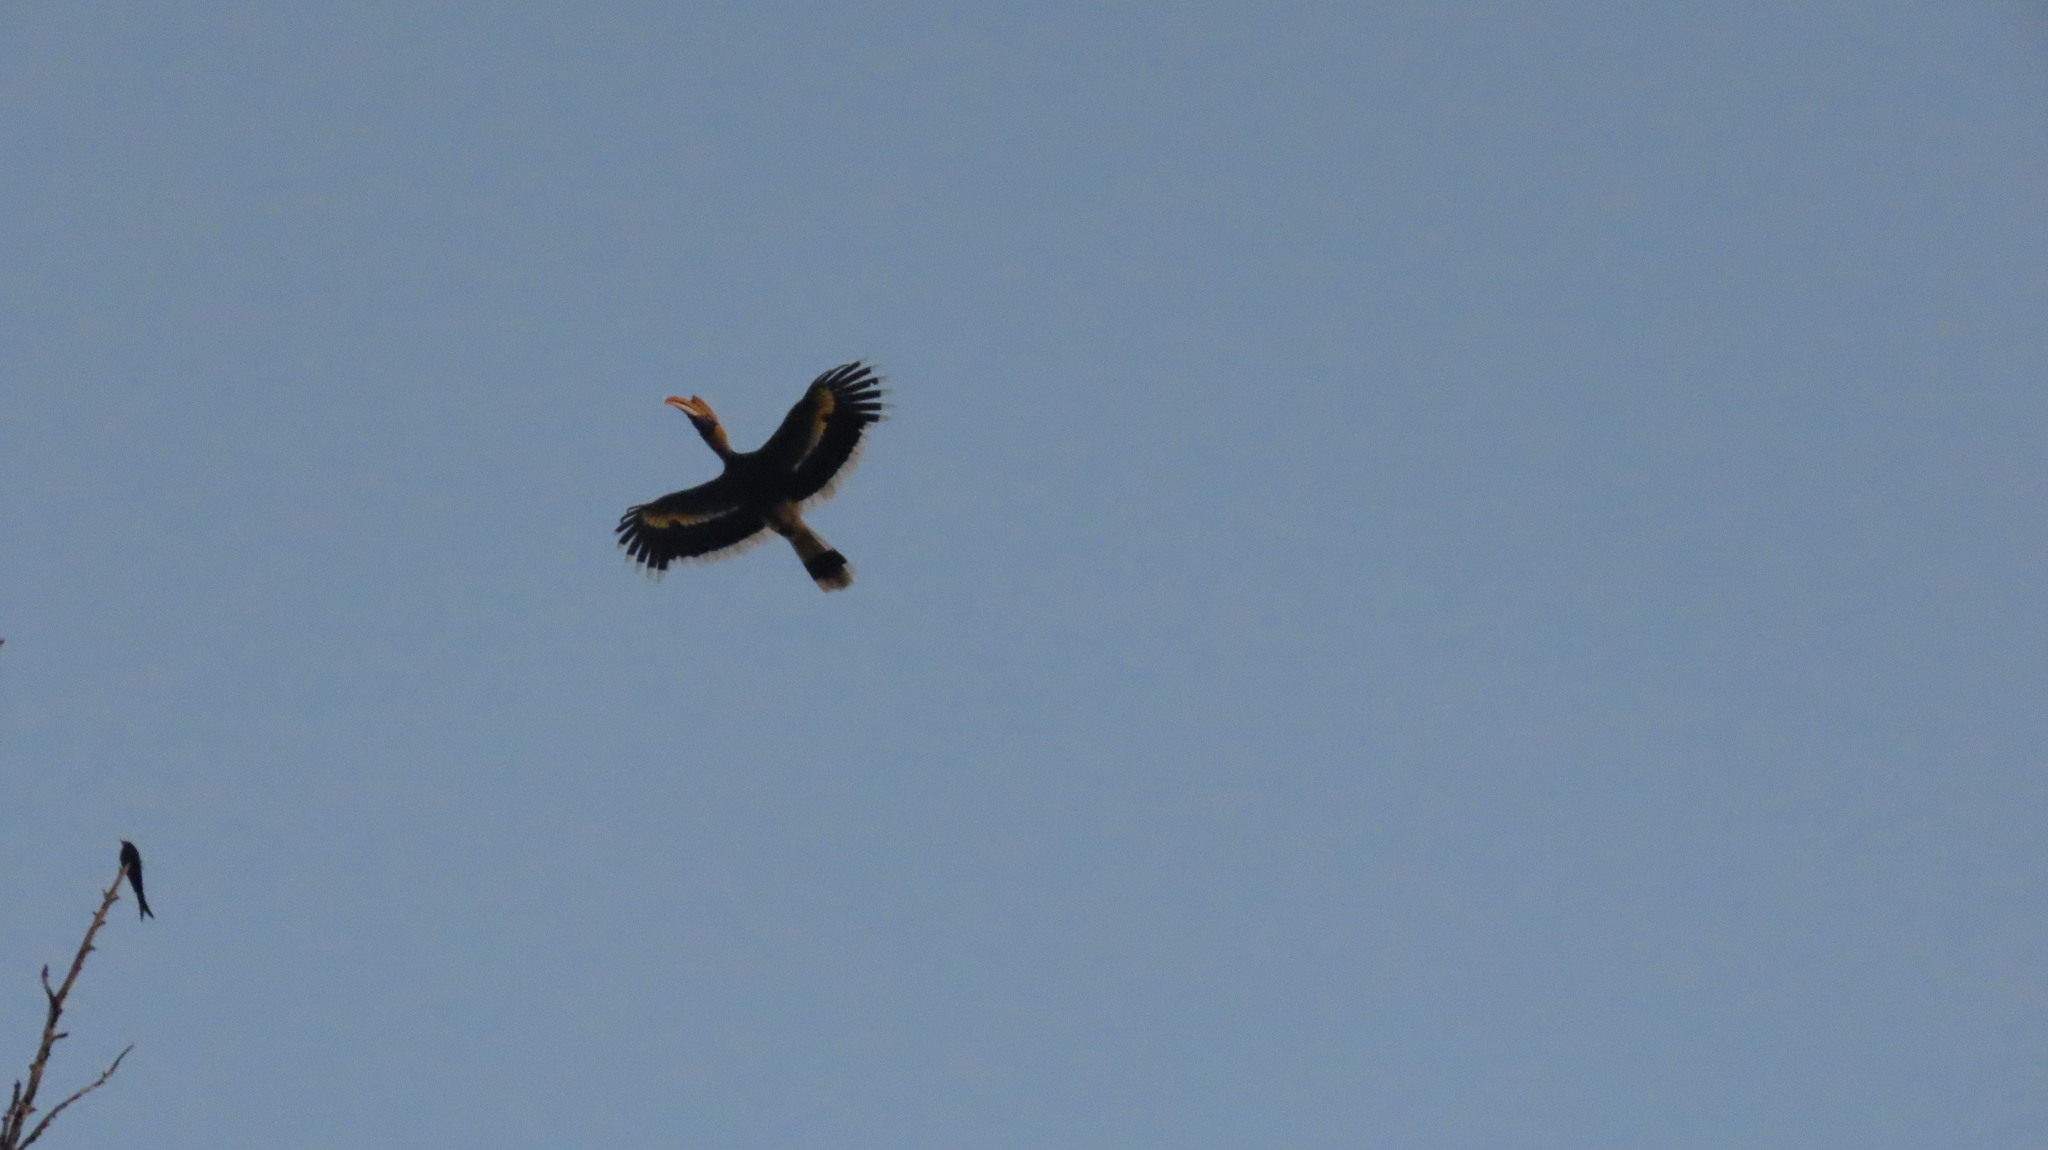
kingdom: Animalia
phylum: Chordata
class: Aves
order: Bucerotiformes
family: Bucerotidae
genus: Buceros
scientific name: Buceros bicornis
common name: Great hornbill
